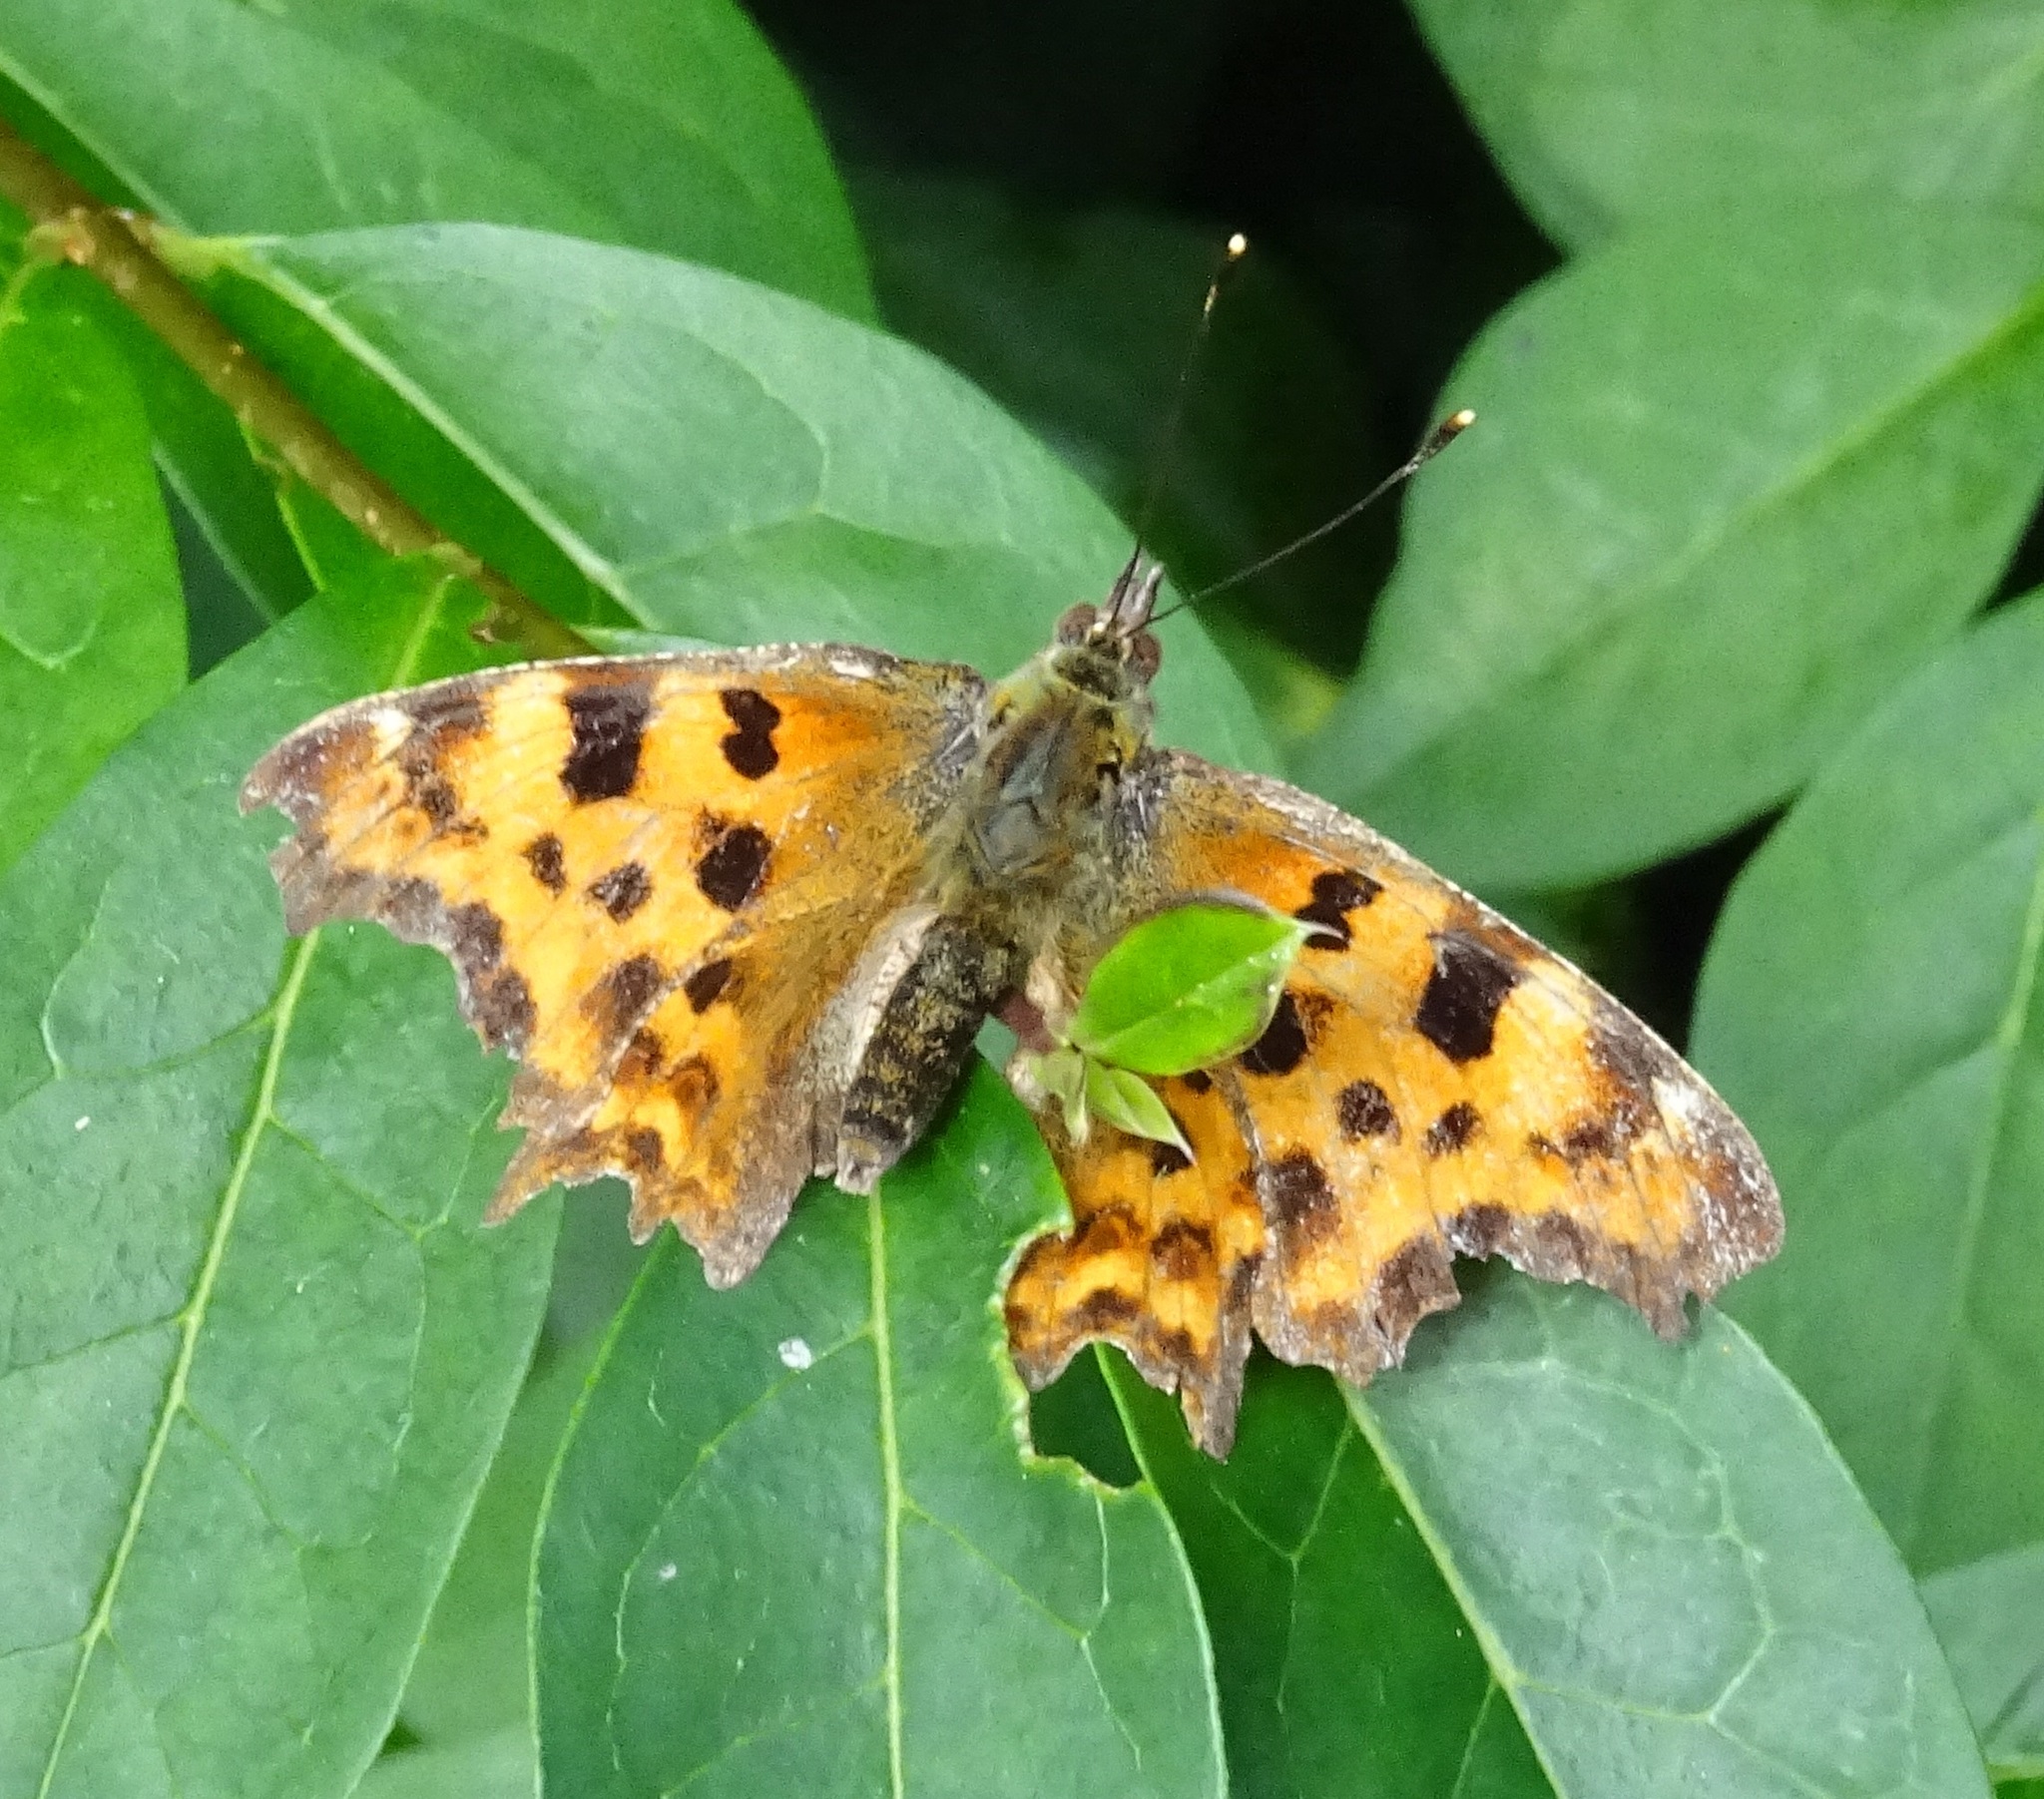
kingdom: Animalia
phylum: Arthropoda
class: Insecta
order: Lepidoptera
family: Nymphalidae
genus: Polygonia
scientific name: Polygonia c-album
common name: Comma
